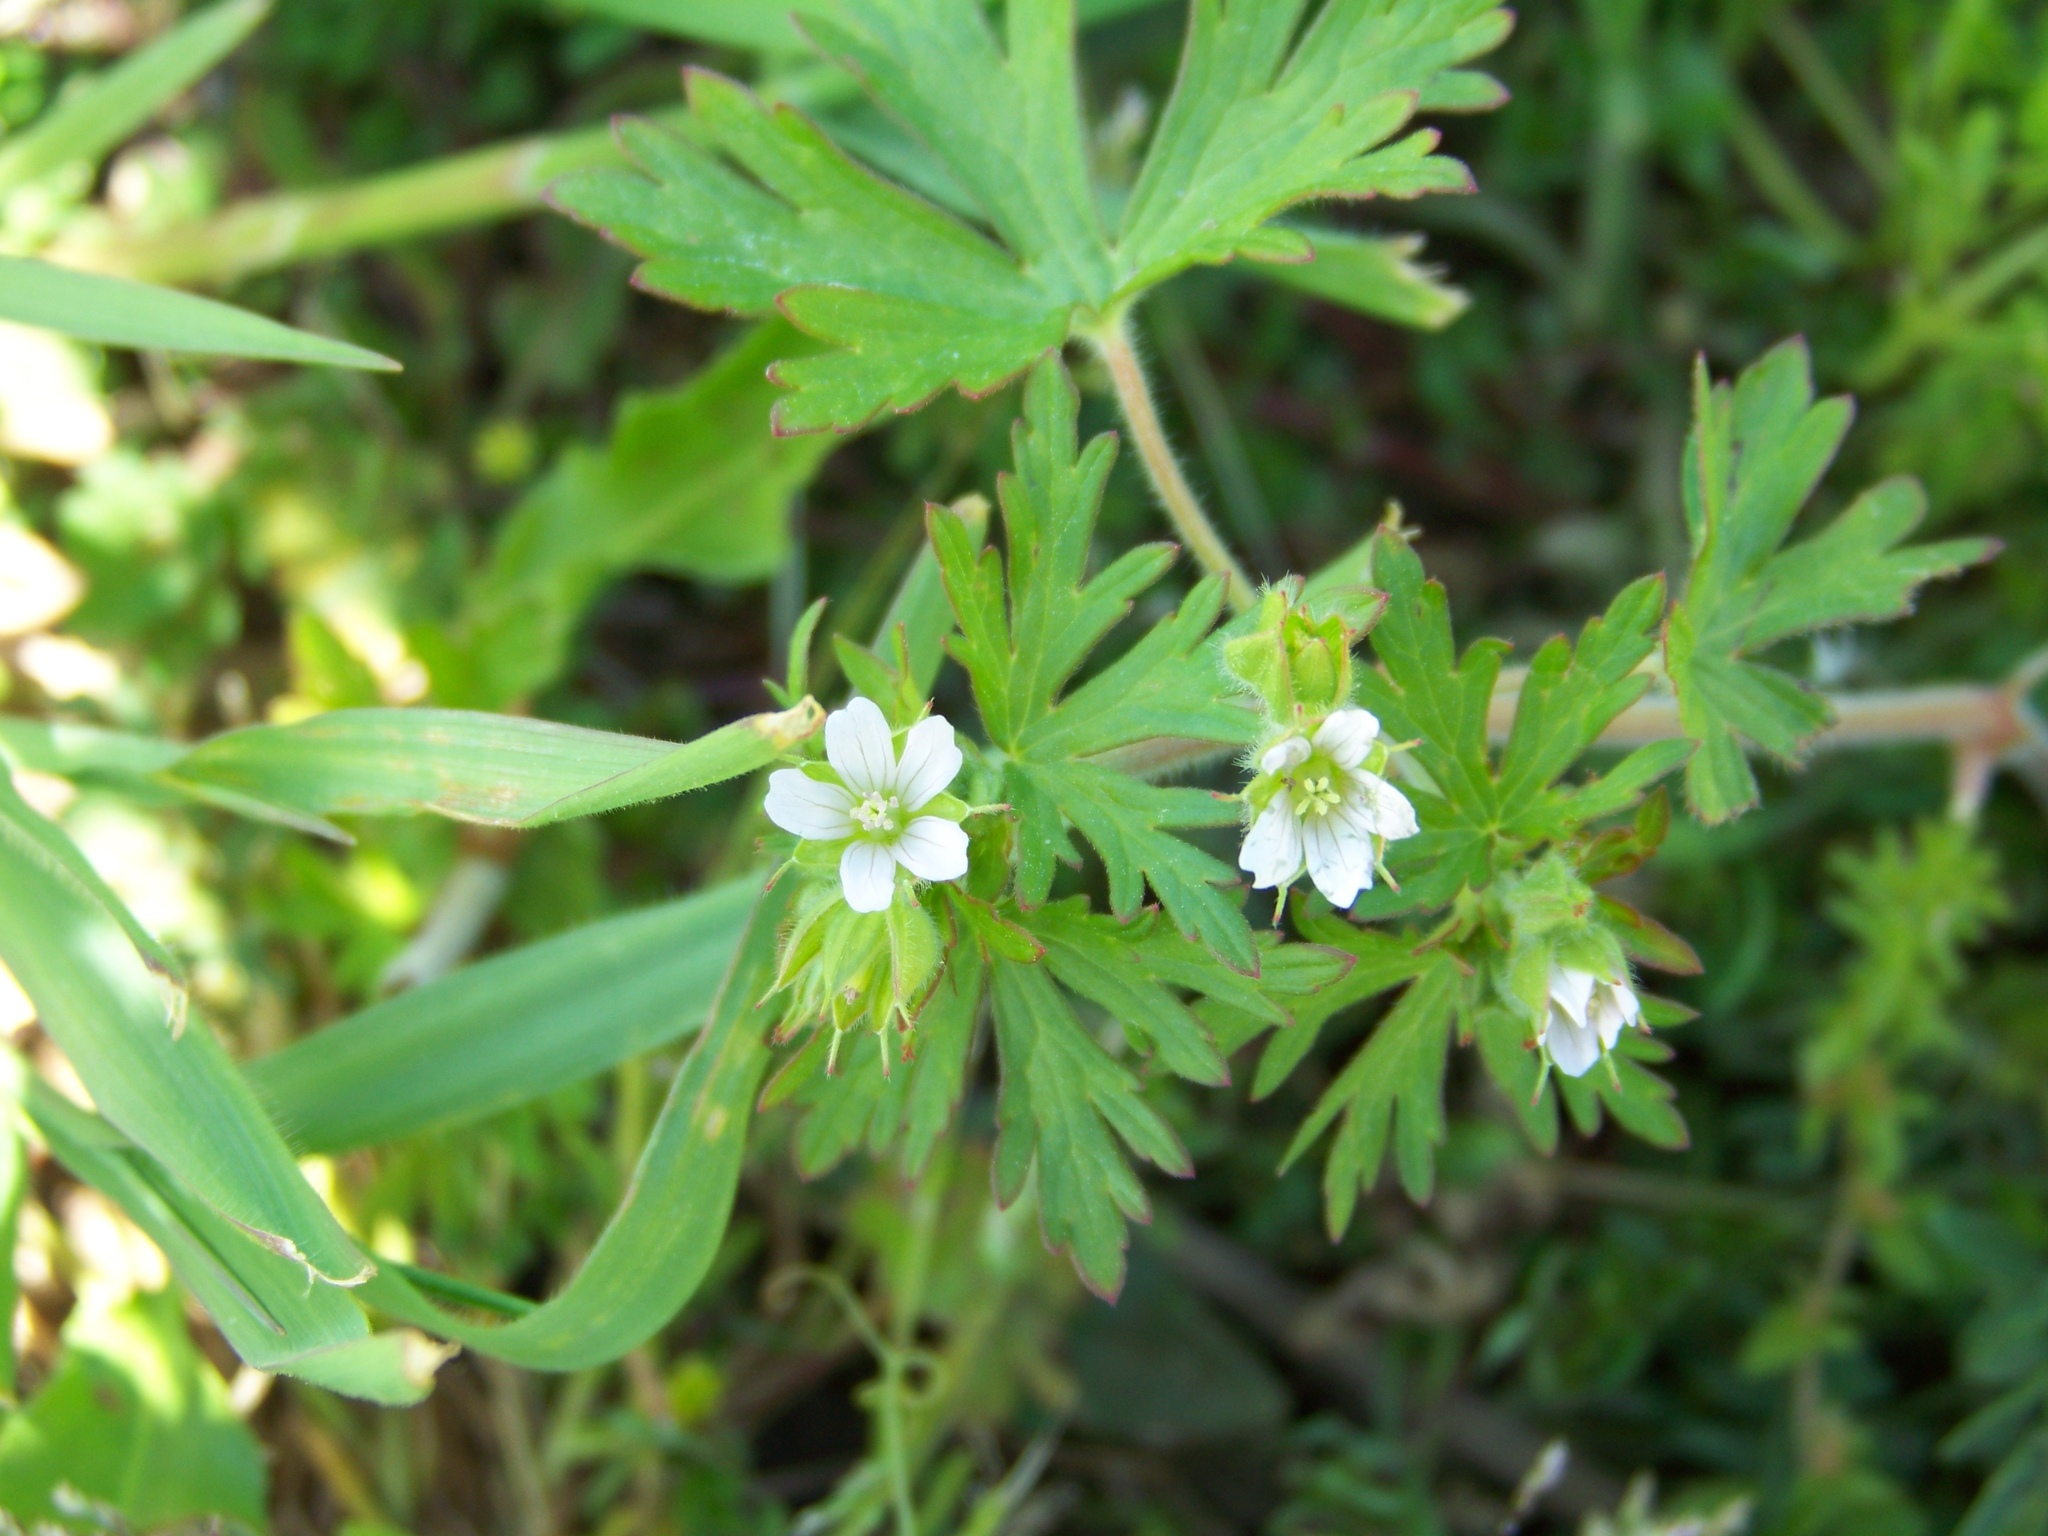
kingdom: Plantae
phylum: Tracheophyta
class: Magnoliopsida
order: Geraniales
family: Geraniaceae
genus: Geranium
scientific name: Geranium carolinianum
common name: Carolina crane's-bill
